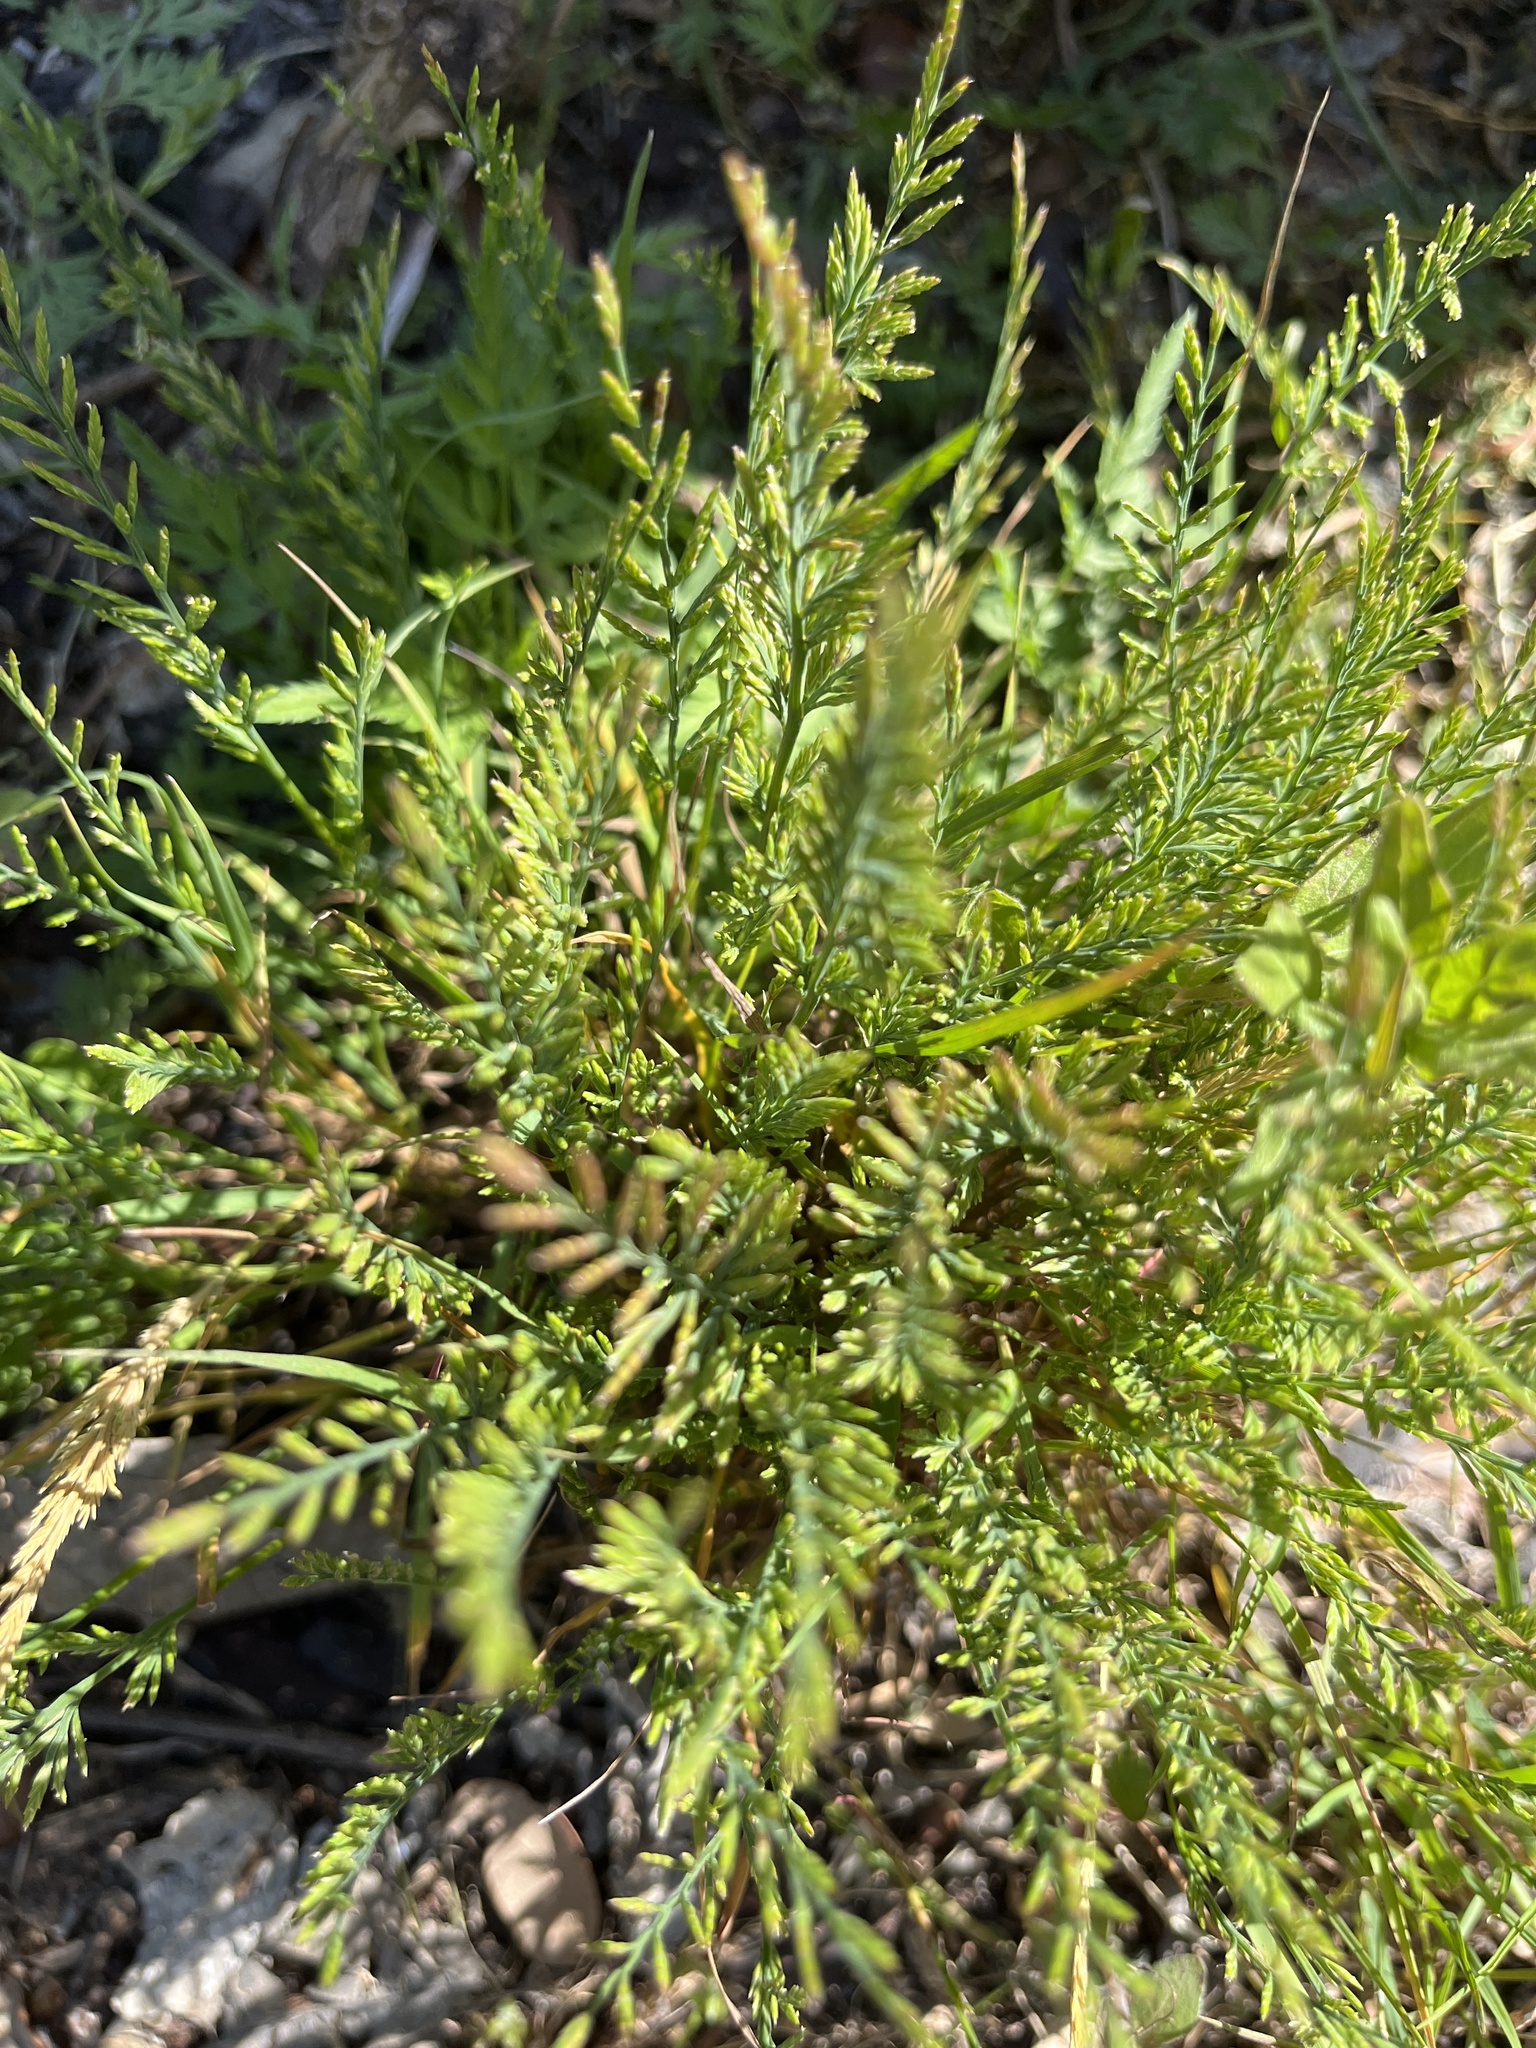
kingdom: Plantae
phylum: Tracheophyta
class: Liliopsida
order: Poales
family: Poaceae
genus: Catapodium
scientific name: Catapodium rigidum
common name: Fern-grass
